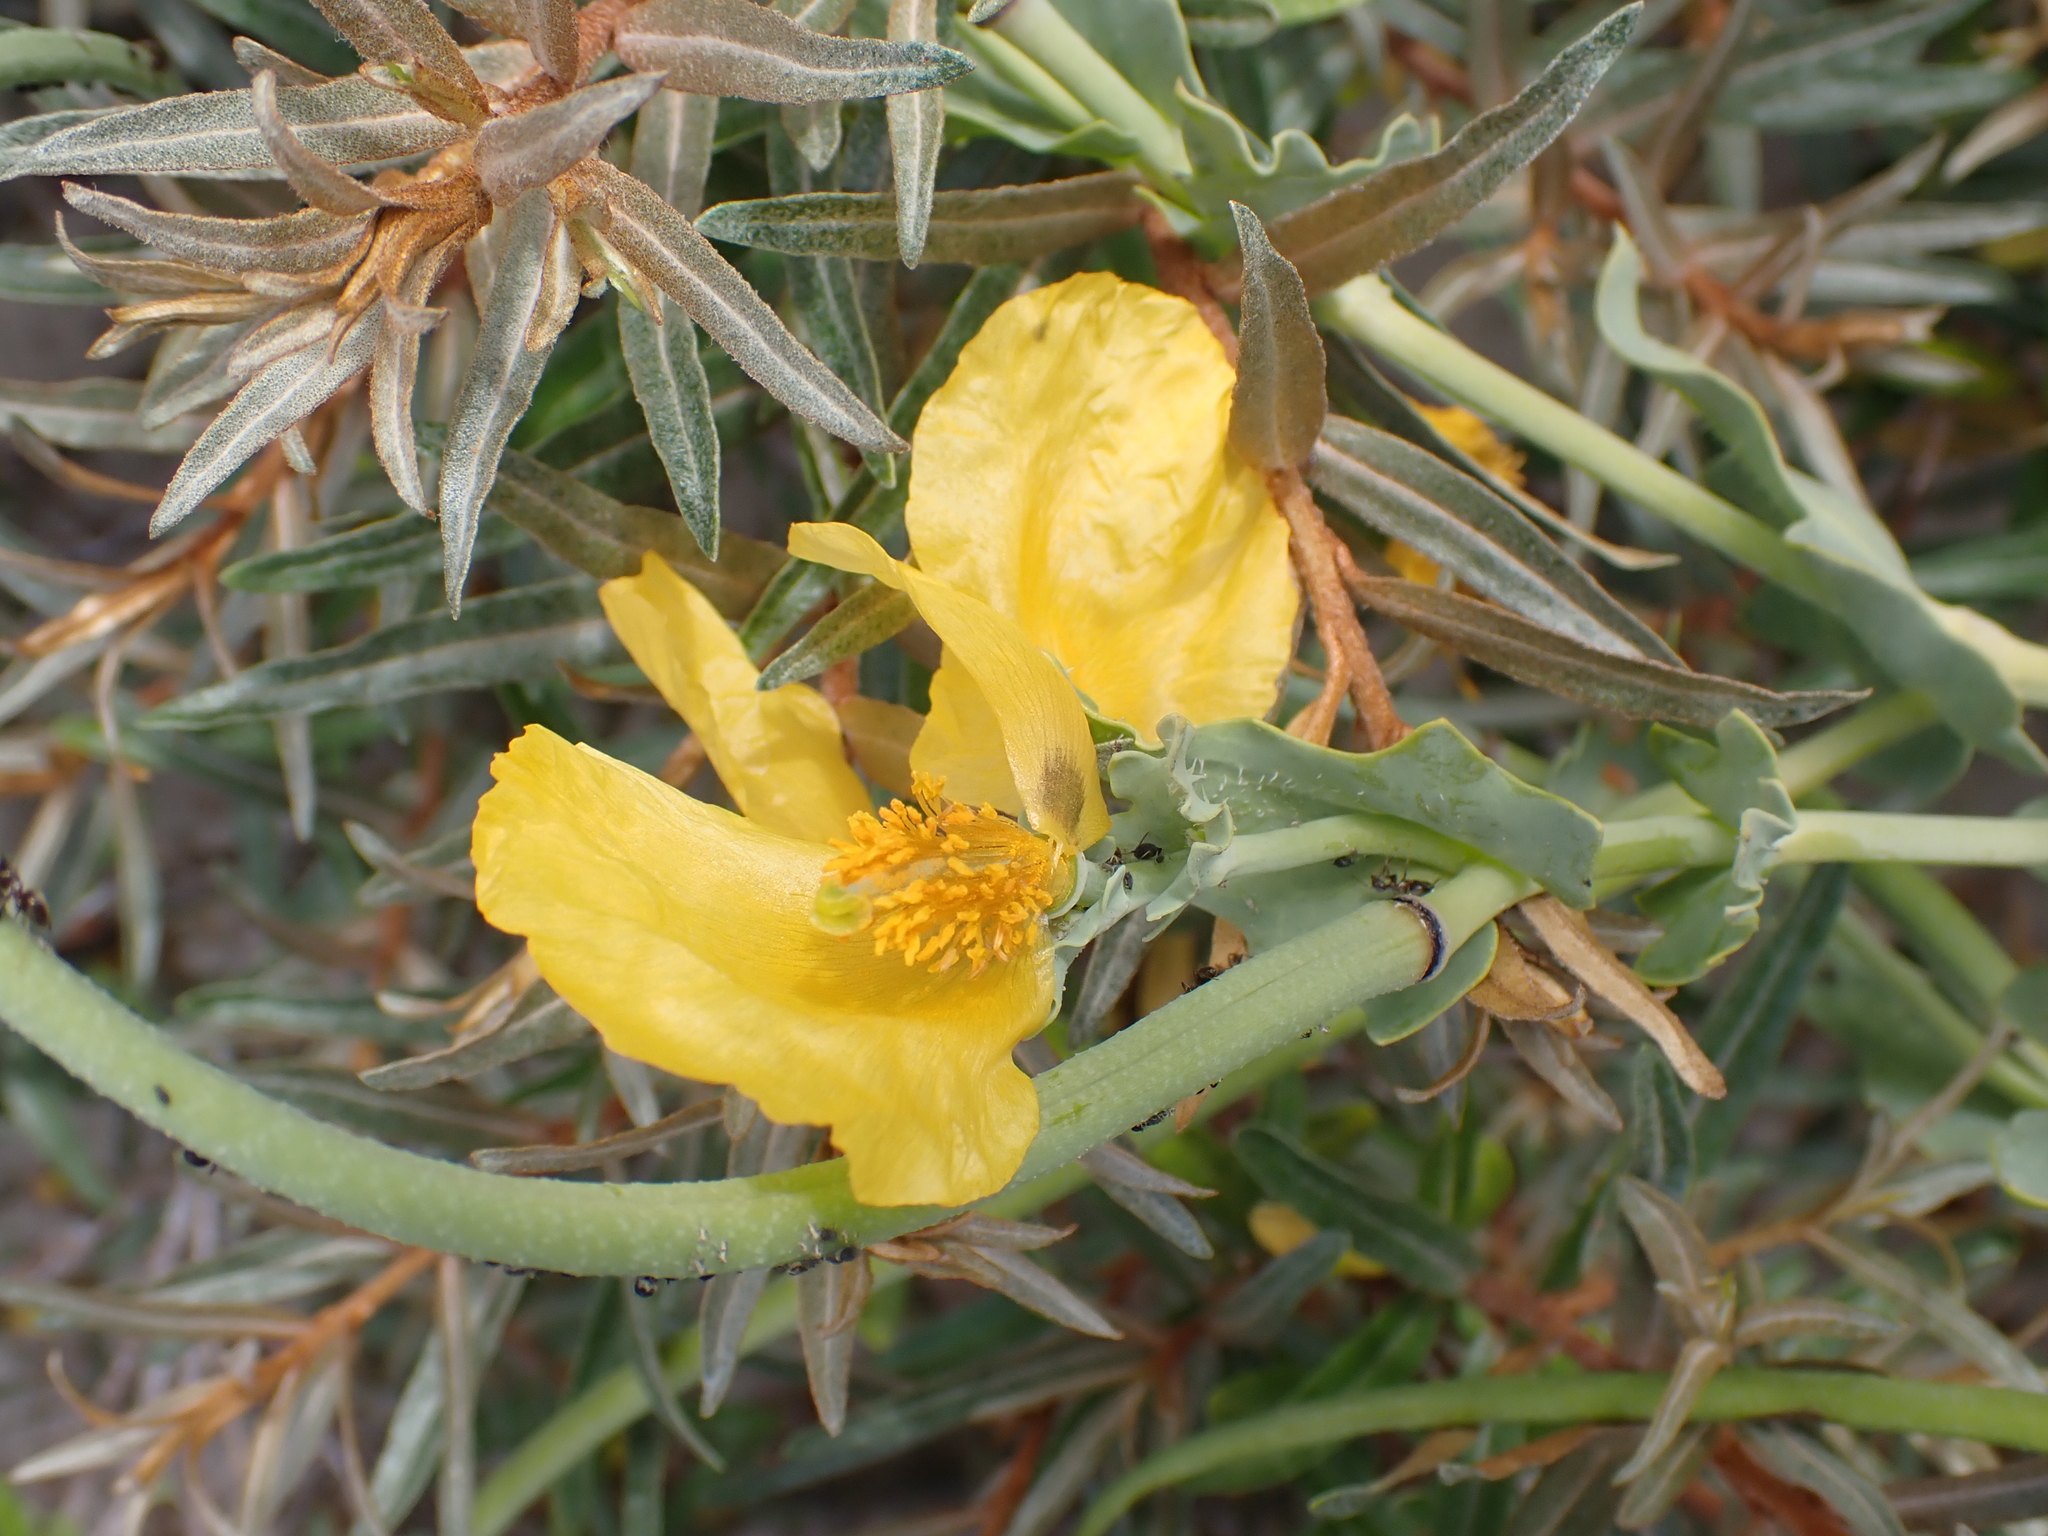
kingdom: Plantae
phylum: Tracheophyta
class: Magnoliopsida
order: Ranunculales
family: Papaveraceae
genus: Glaucium
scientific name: Glaucium flavum
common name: Yellow horned-poppy
